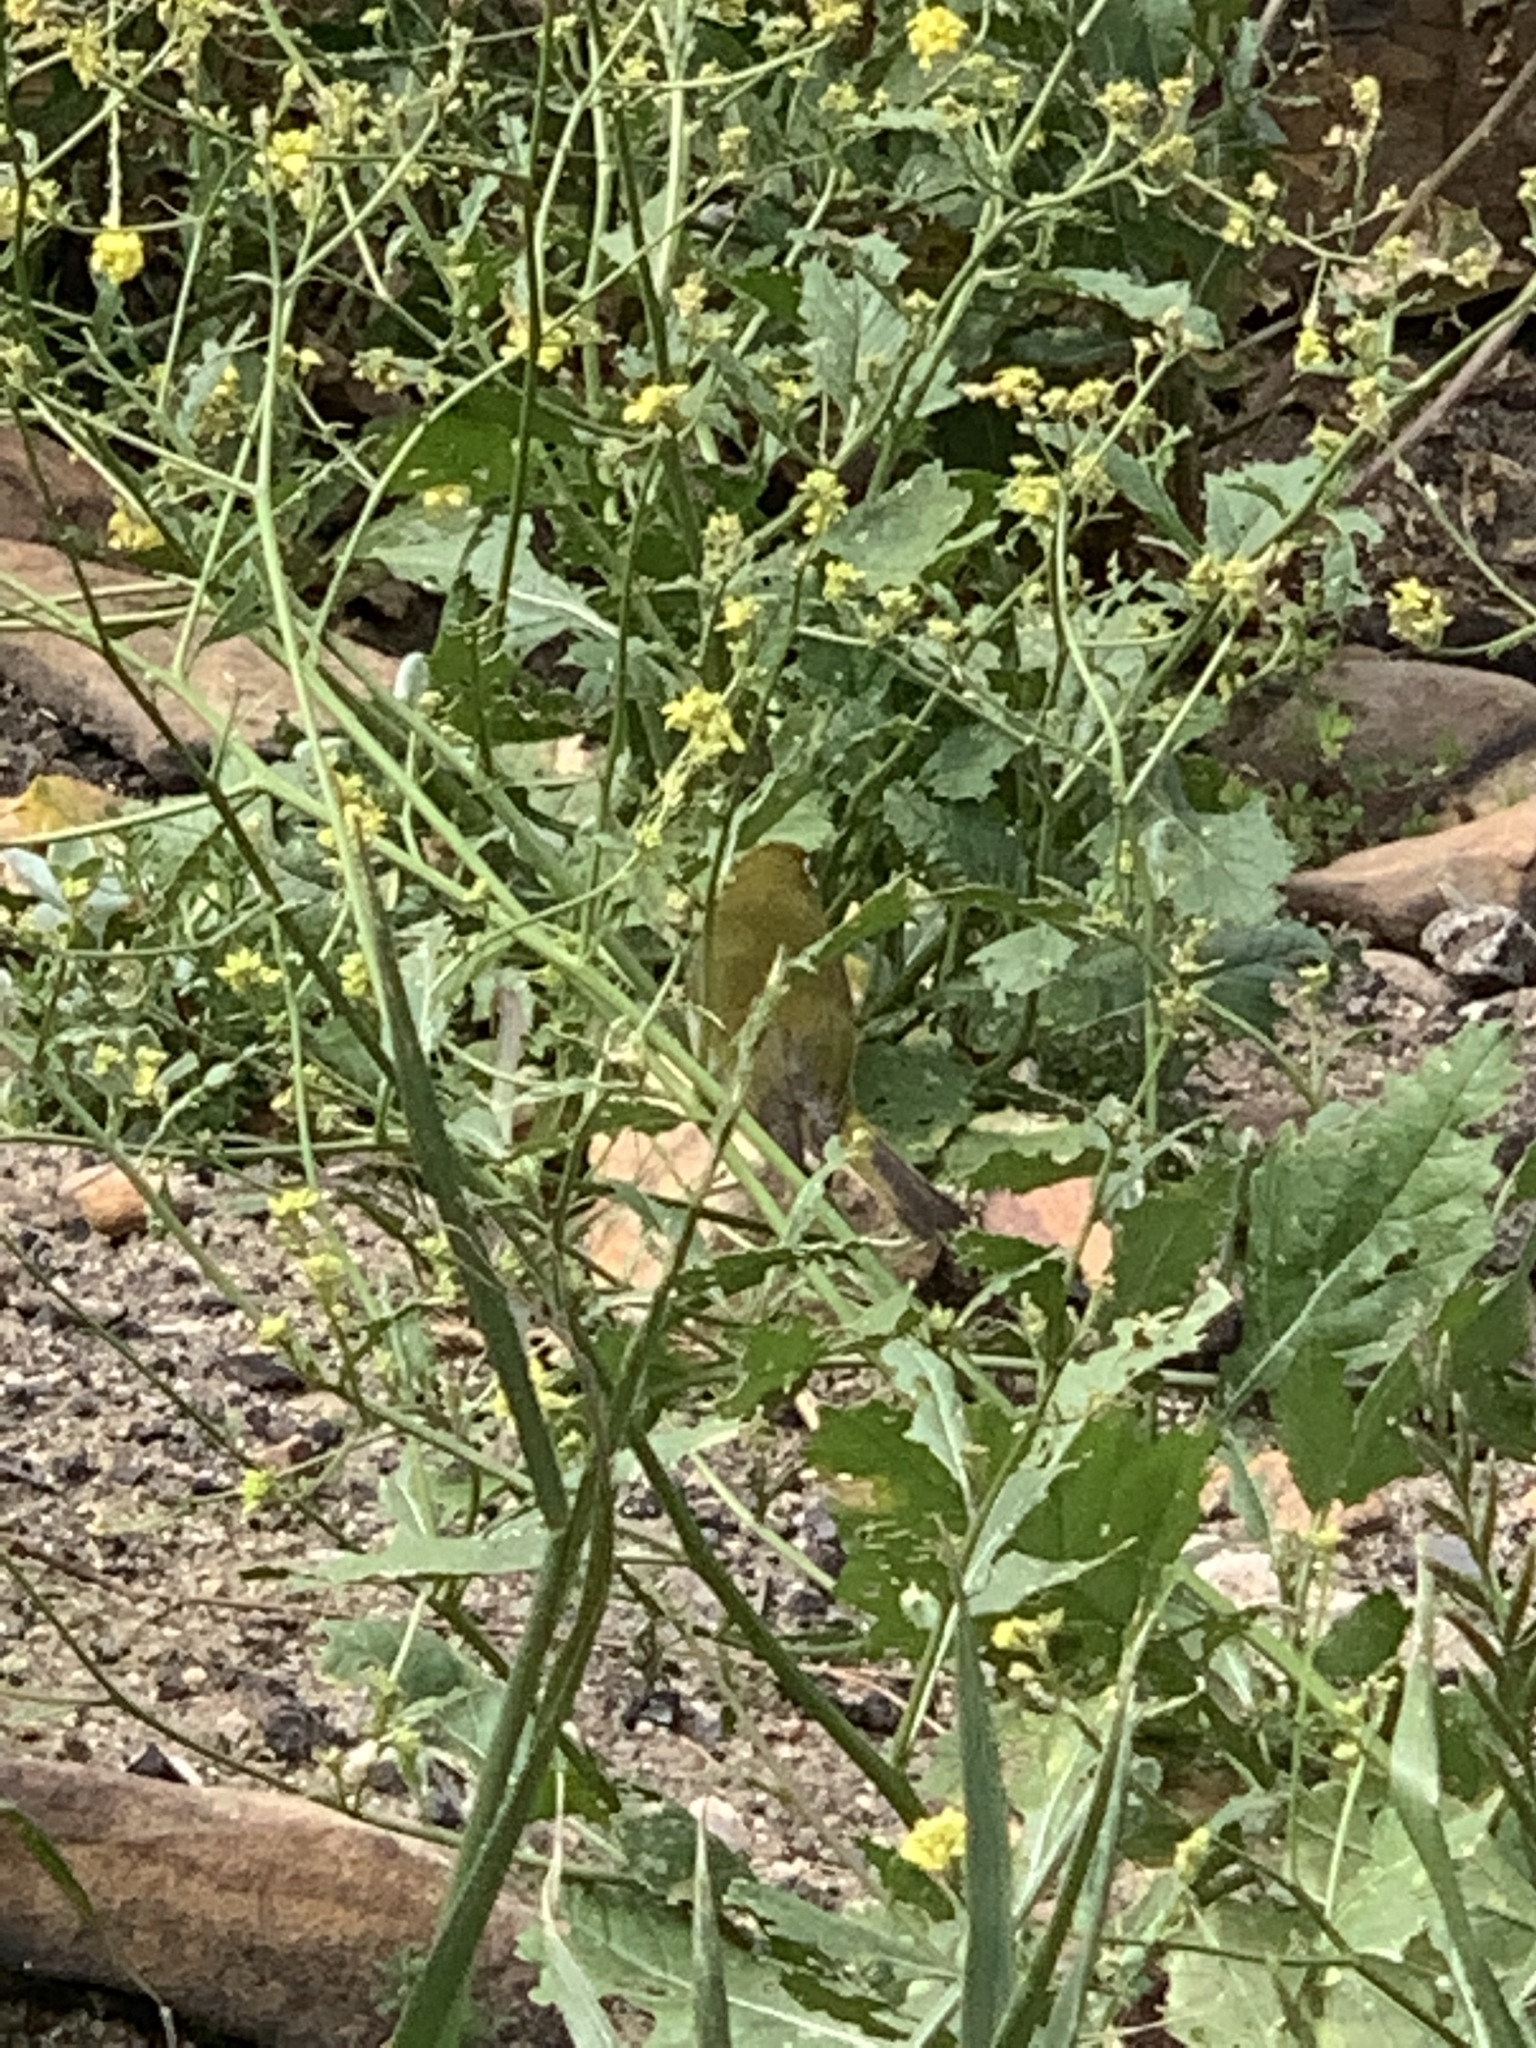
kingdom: Animalia
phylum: Chordata
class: Aves
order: Passeriformes
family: Zosteropidae
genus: Zosterops
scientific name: Zosterops virens
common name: Cape white-eye
